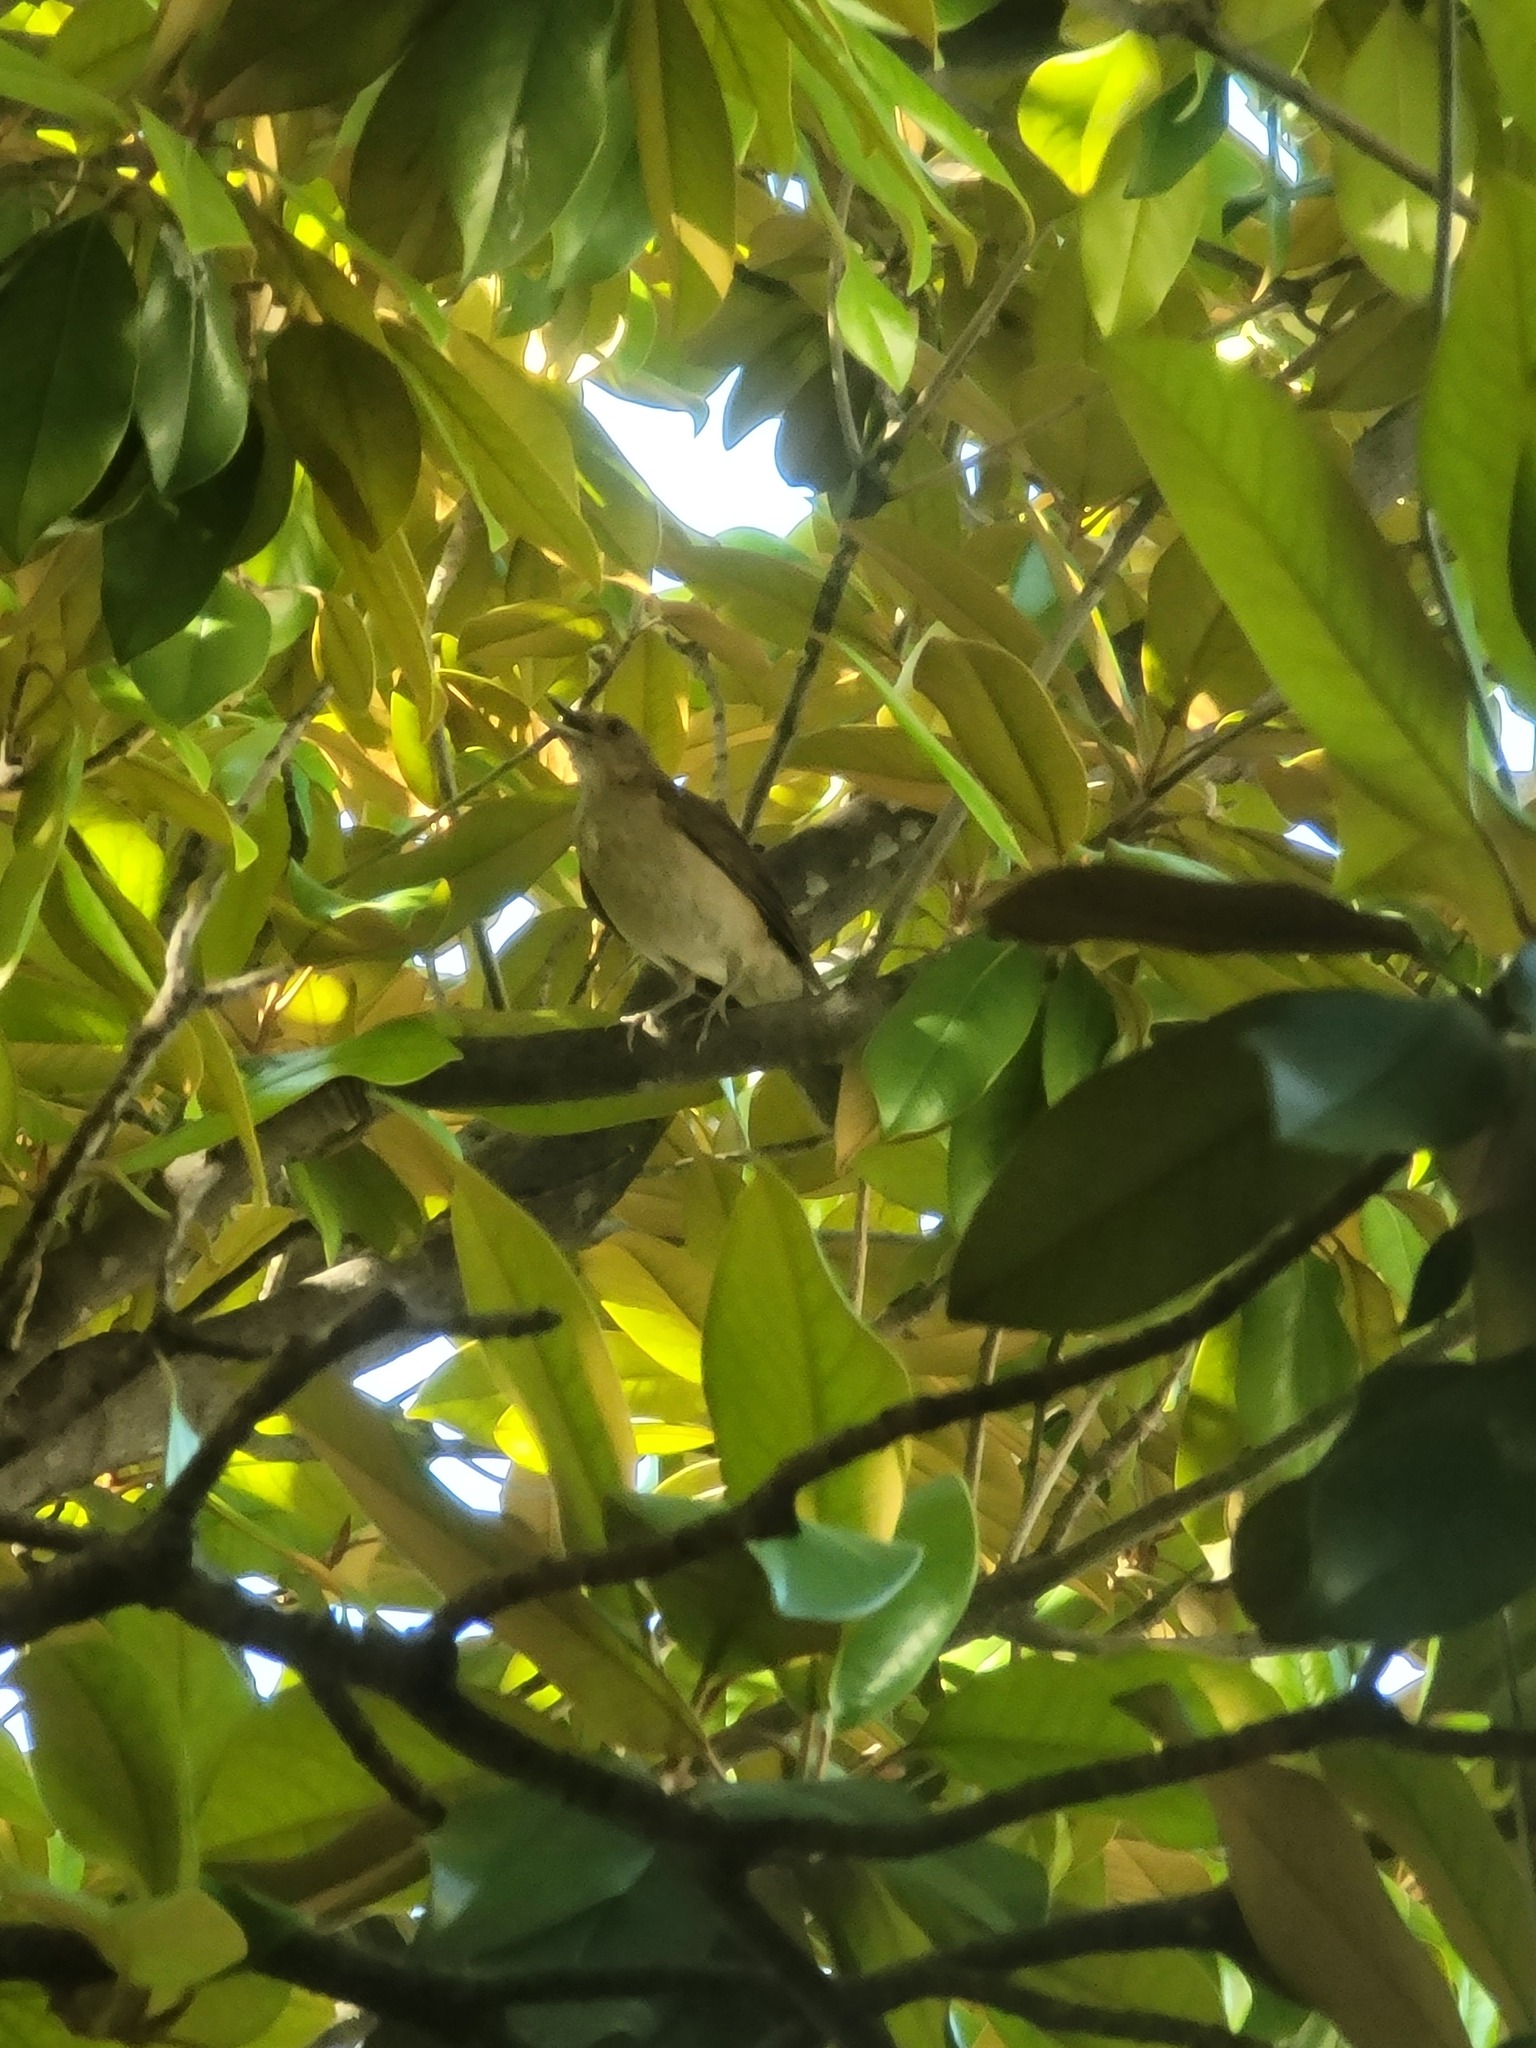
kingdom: Animalia
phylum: Chordata
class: Aves
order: Passeriformes
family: Turdidae
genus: Turdus
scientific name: Turdus grayi
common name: Clay-colored thrush
